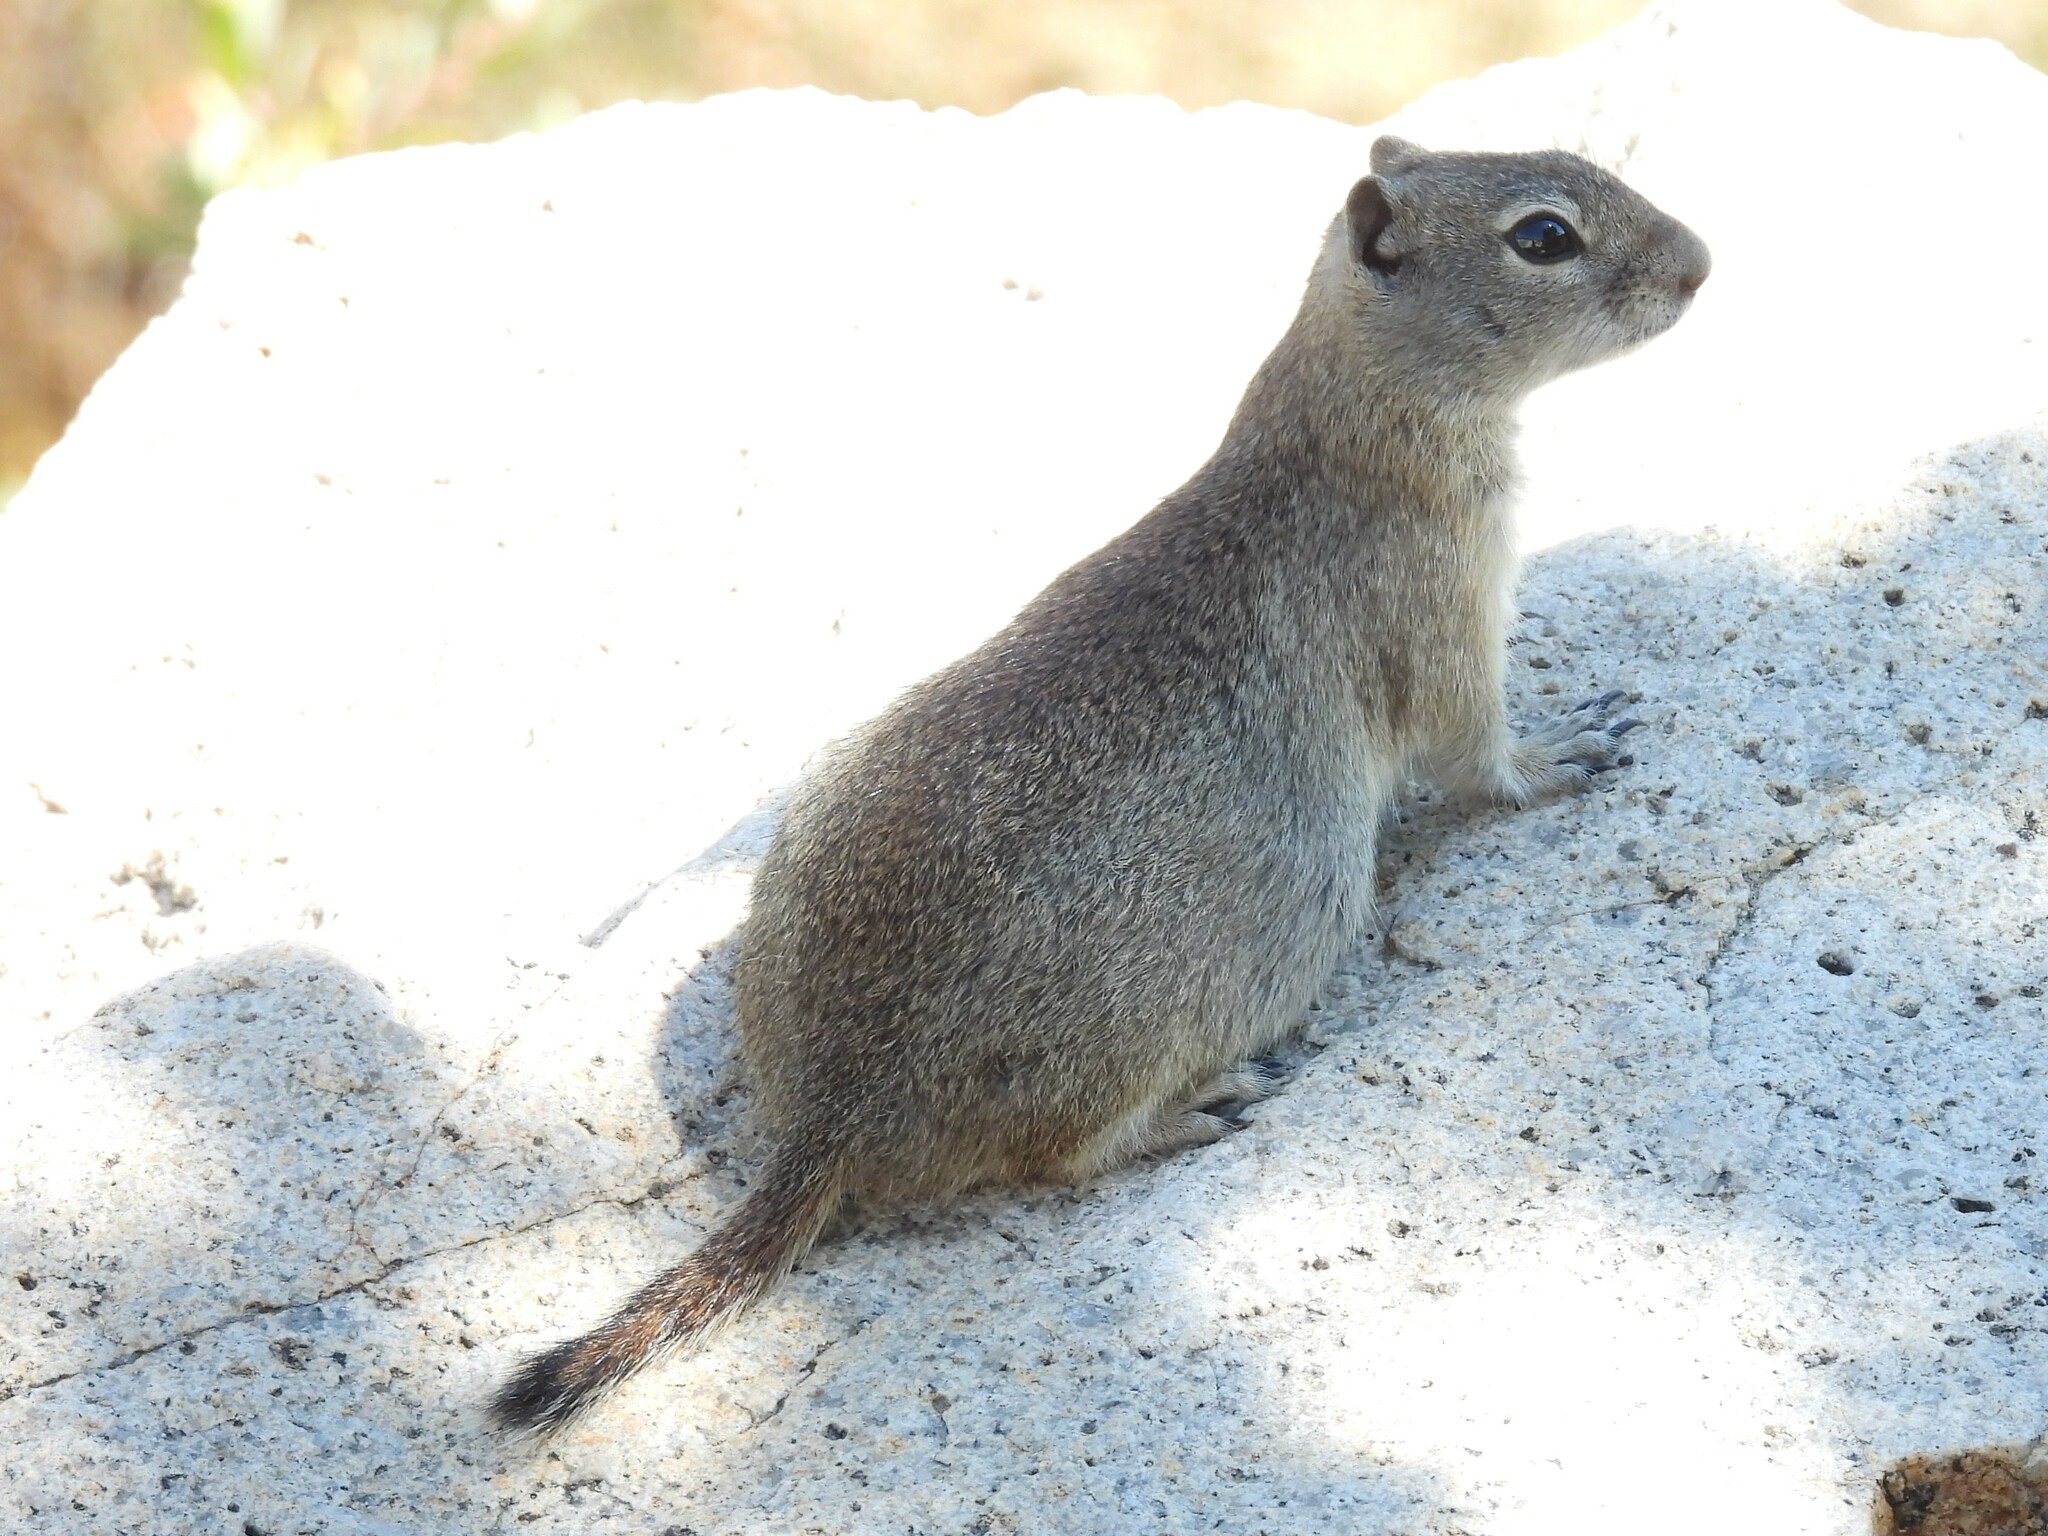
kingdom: Animalia
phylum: Chordata
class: Mammalia
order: Rodentia
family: Sciuridae
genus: Urocitellus
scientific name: Urocitellus beldingi
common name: Belding's ground squirrel
